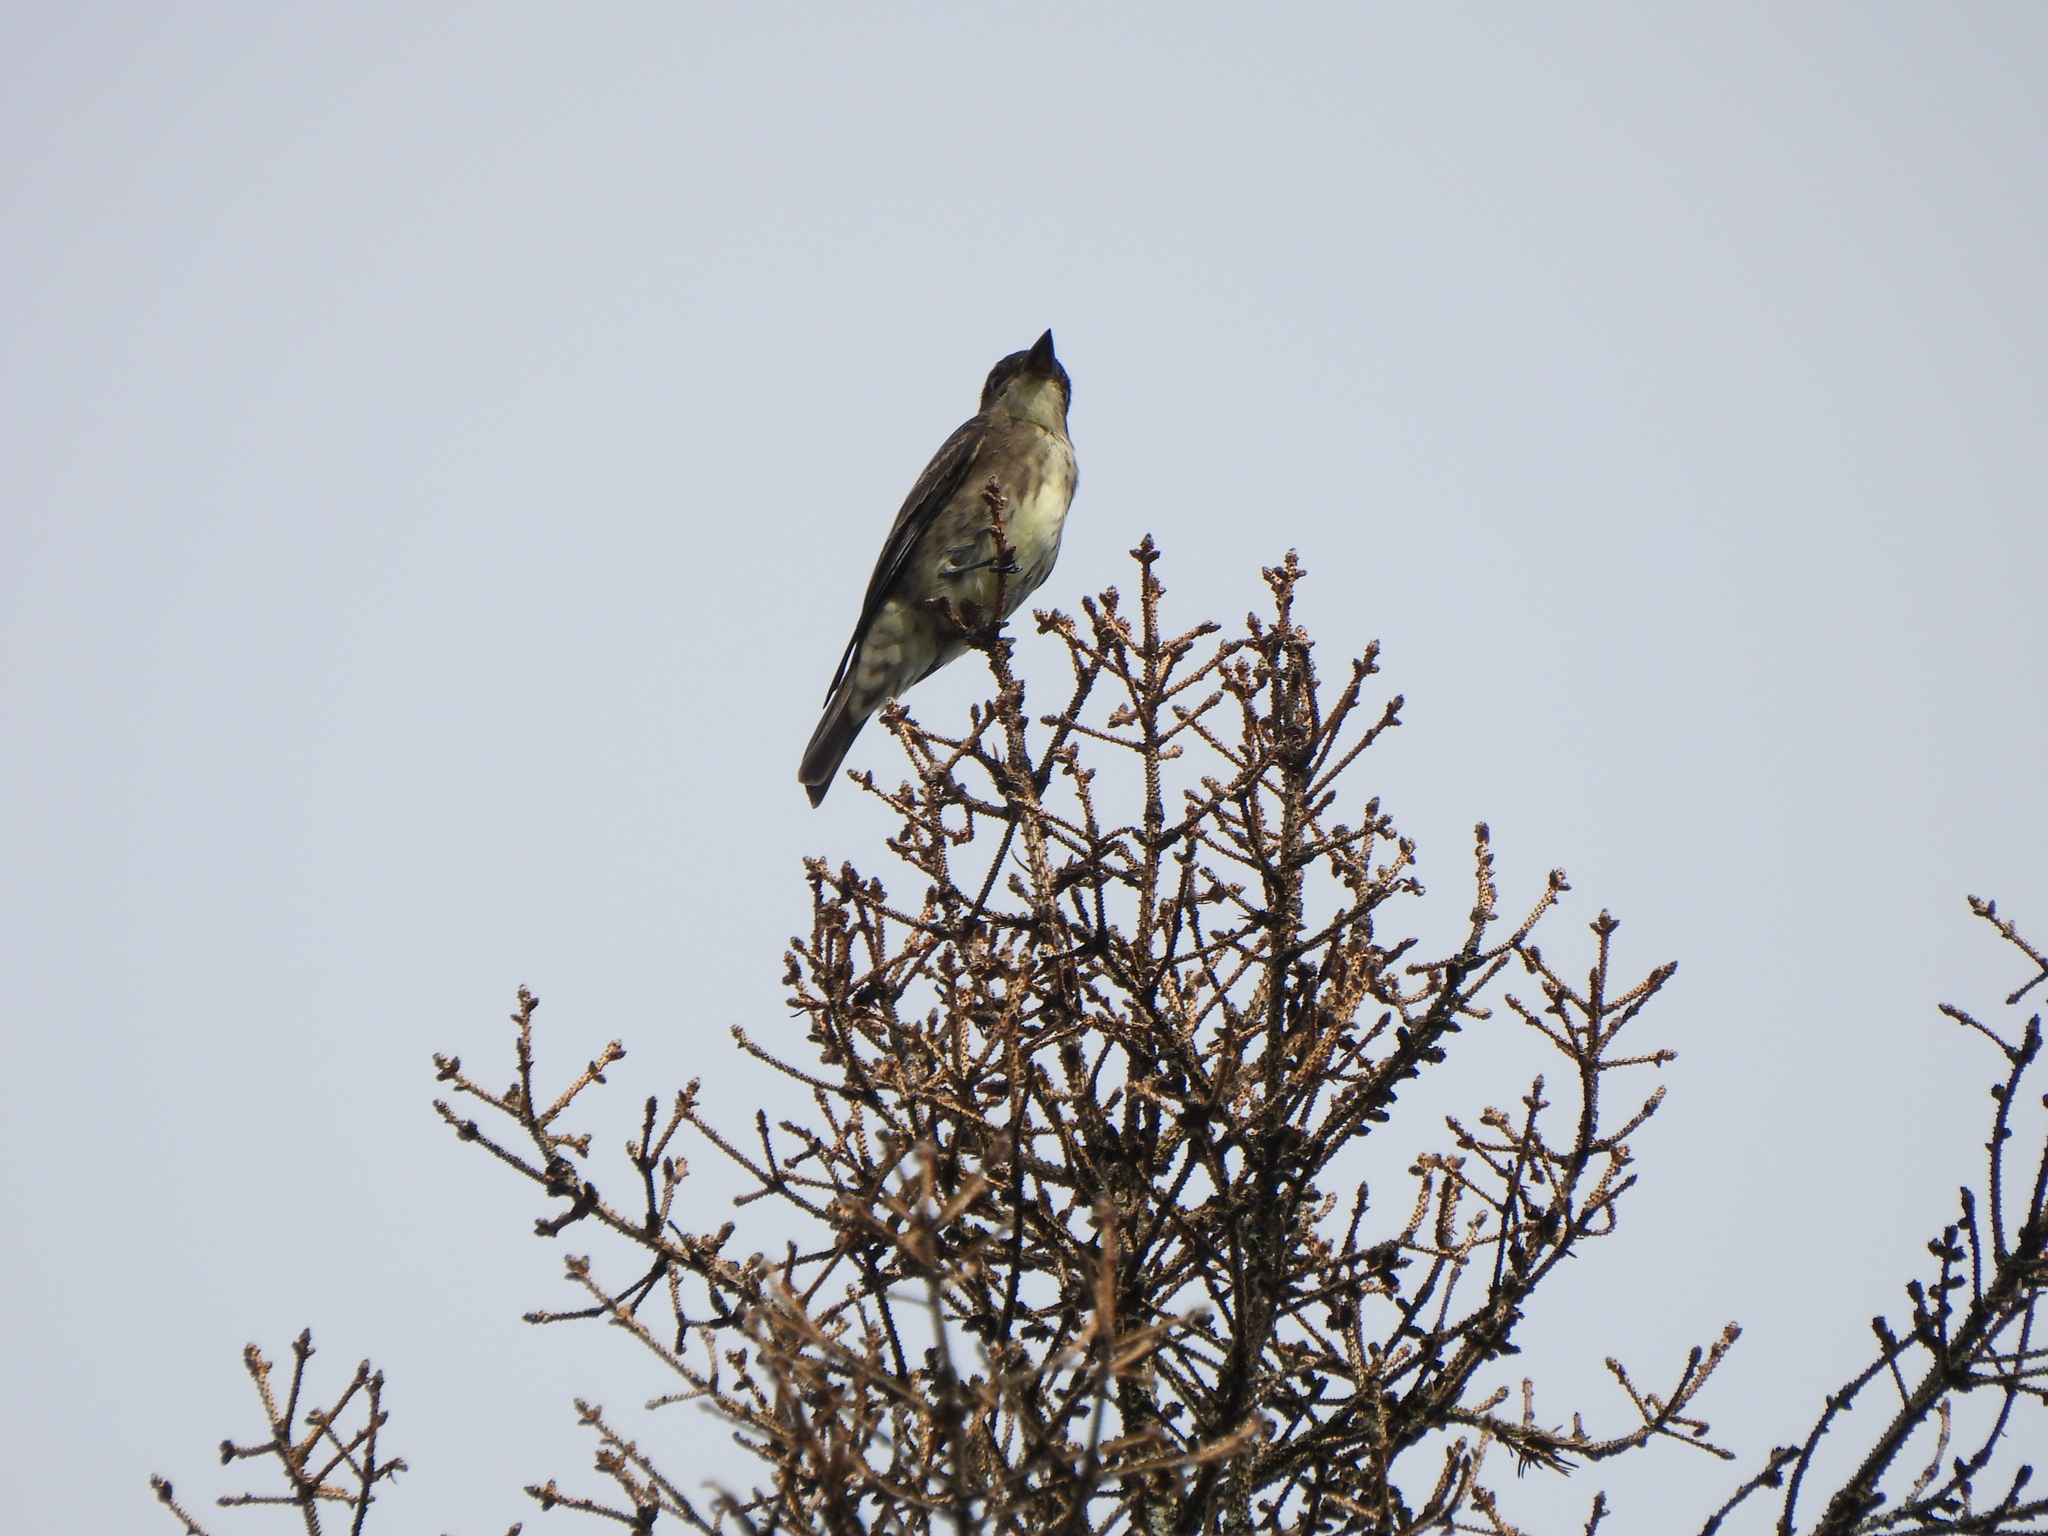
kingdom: Animalia
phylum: Chordata
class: Aves
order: Passeriformes
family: Tyrannidae
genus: Contopus
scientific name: Contopus cooperi
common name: Olive-sided flycatcher
